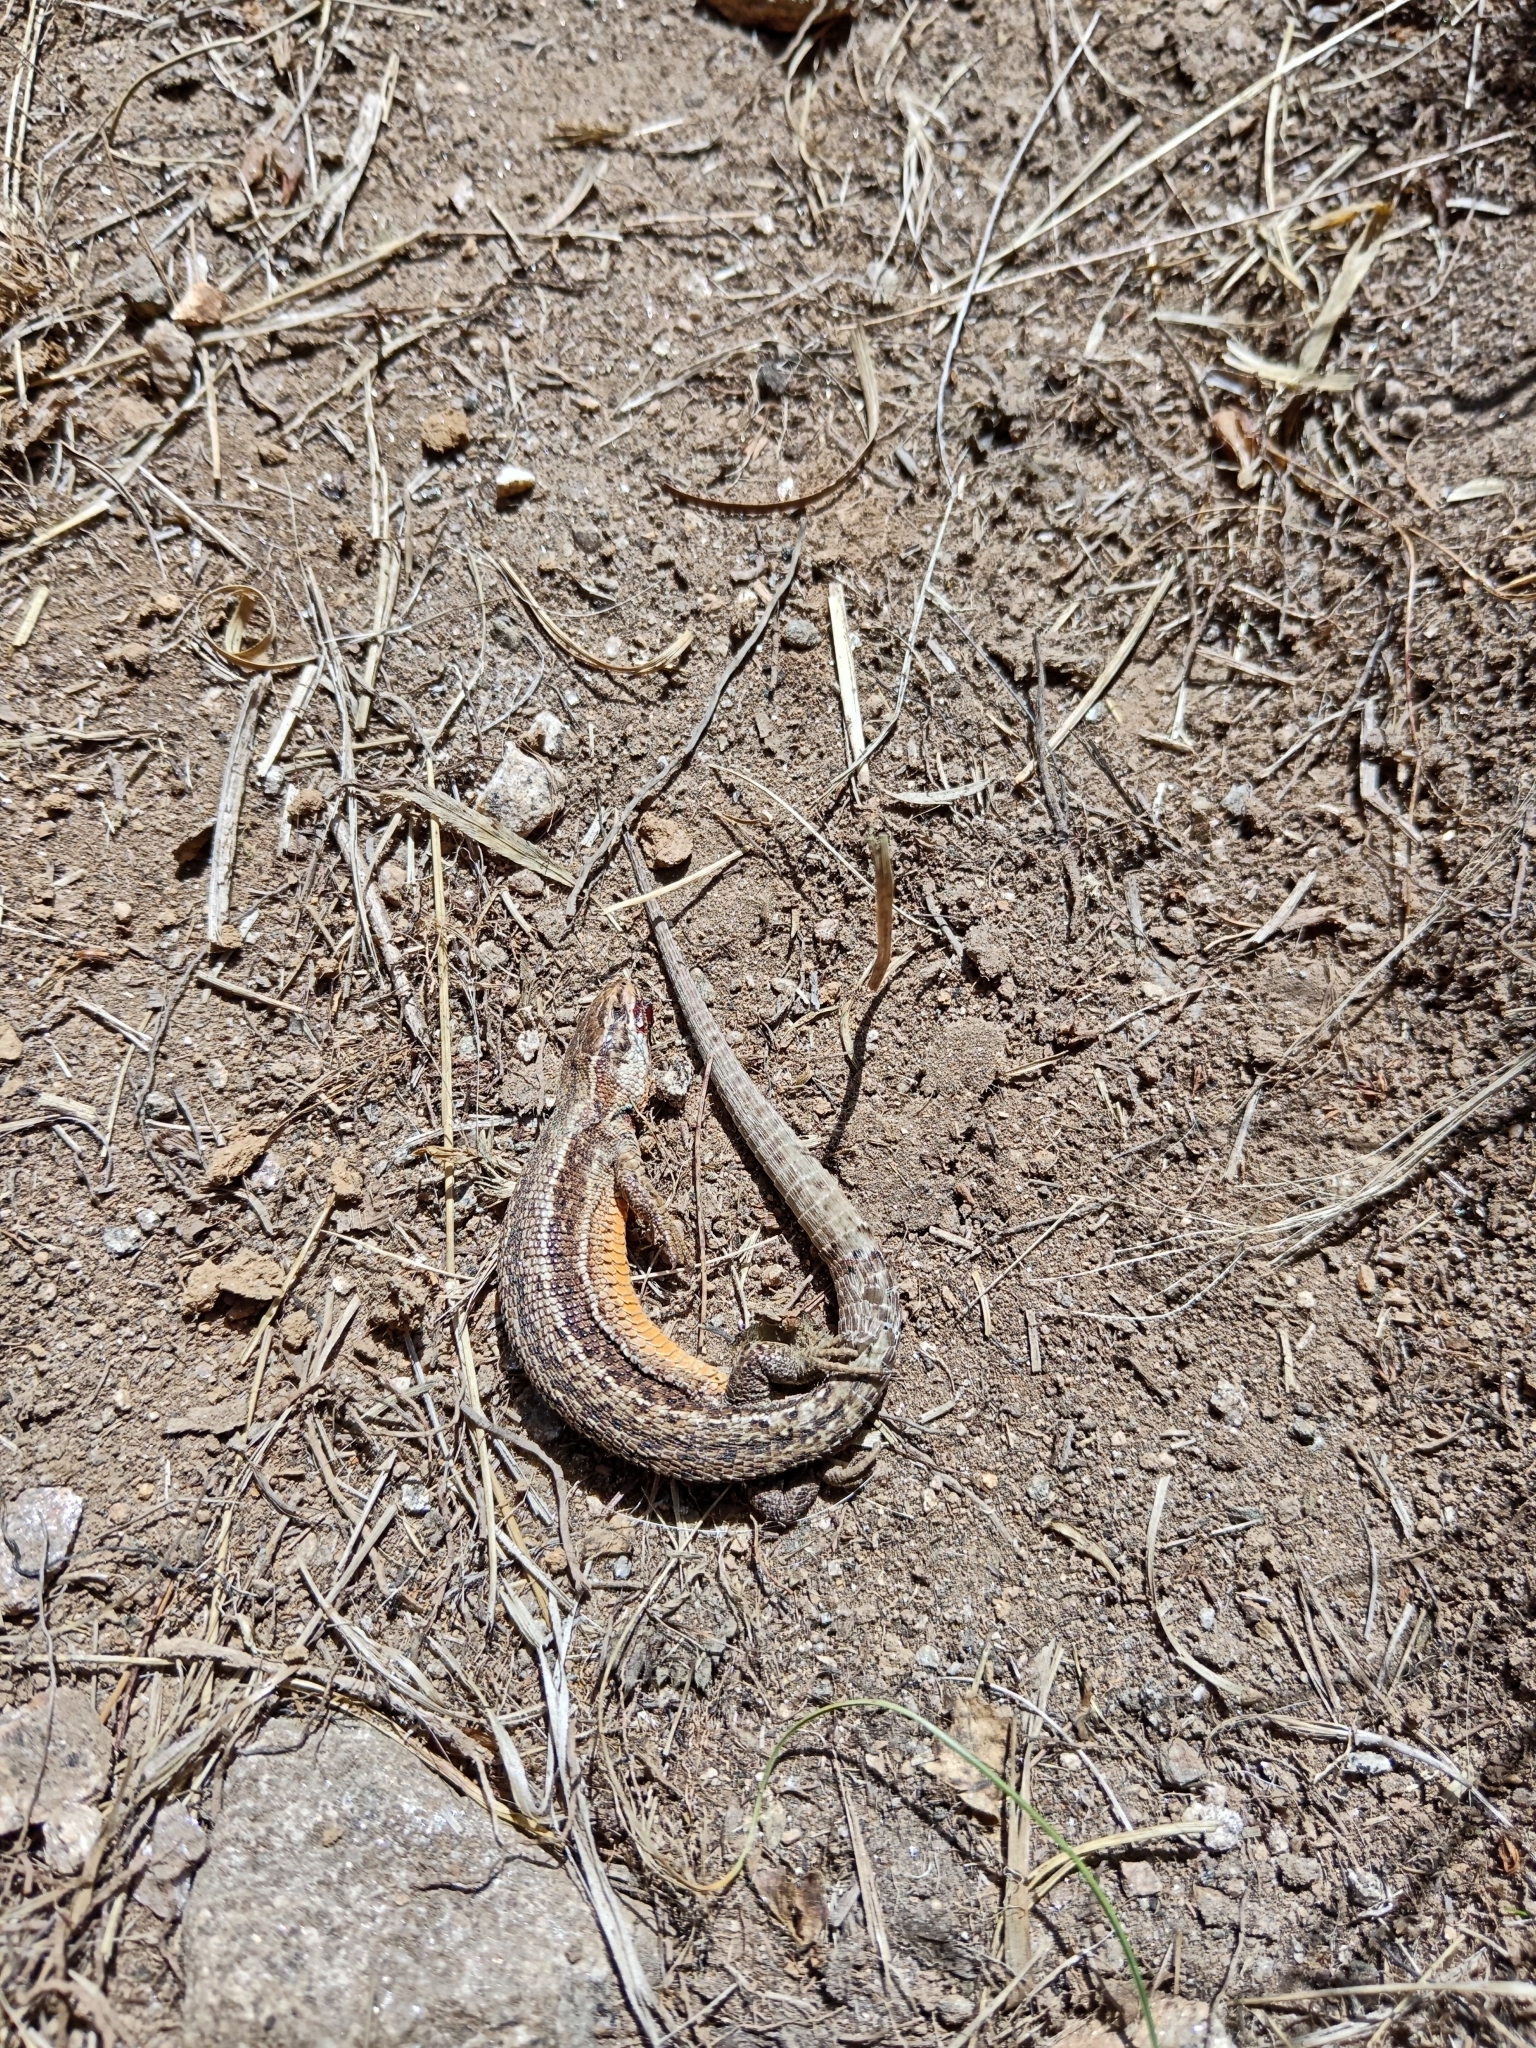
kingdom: Animalia
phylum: Chordata
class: Squamata
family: Lacertidae
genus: Zootoca
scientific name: Zootoca vivipara
